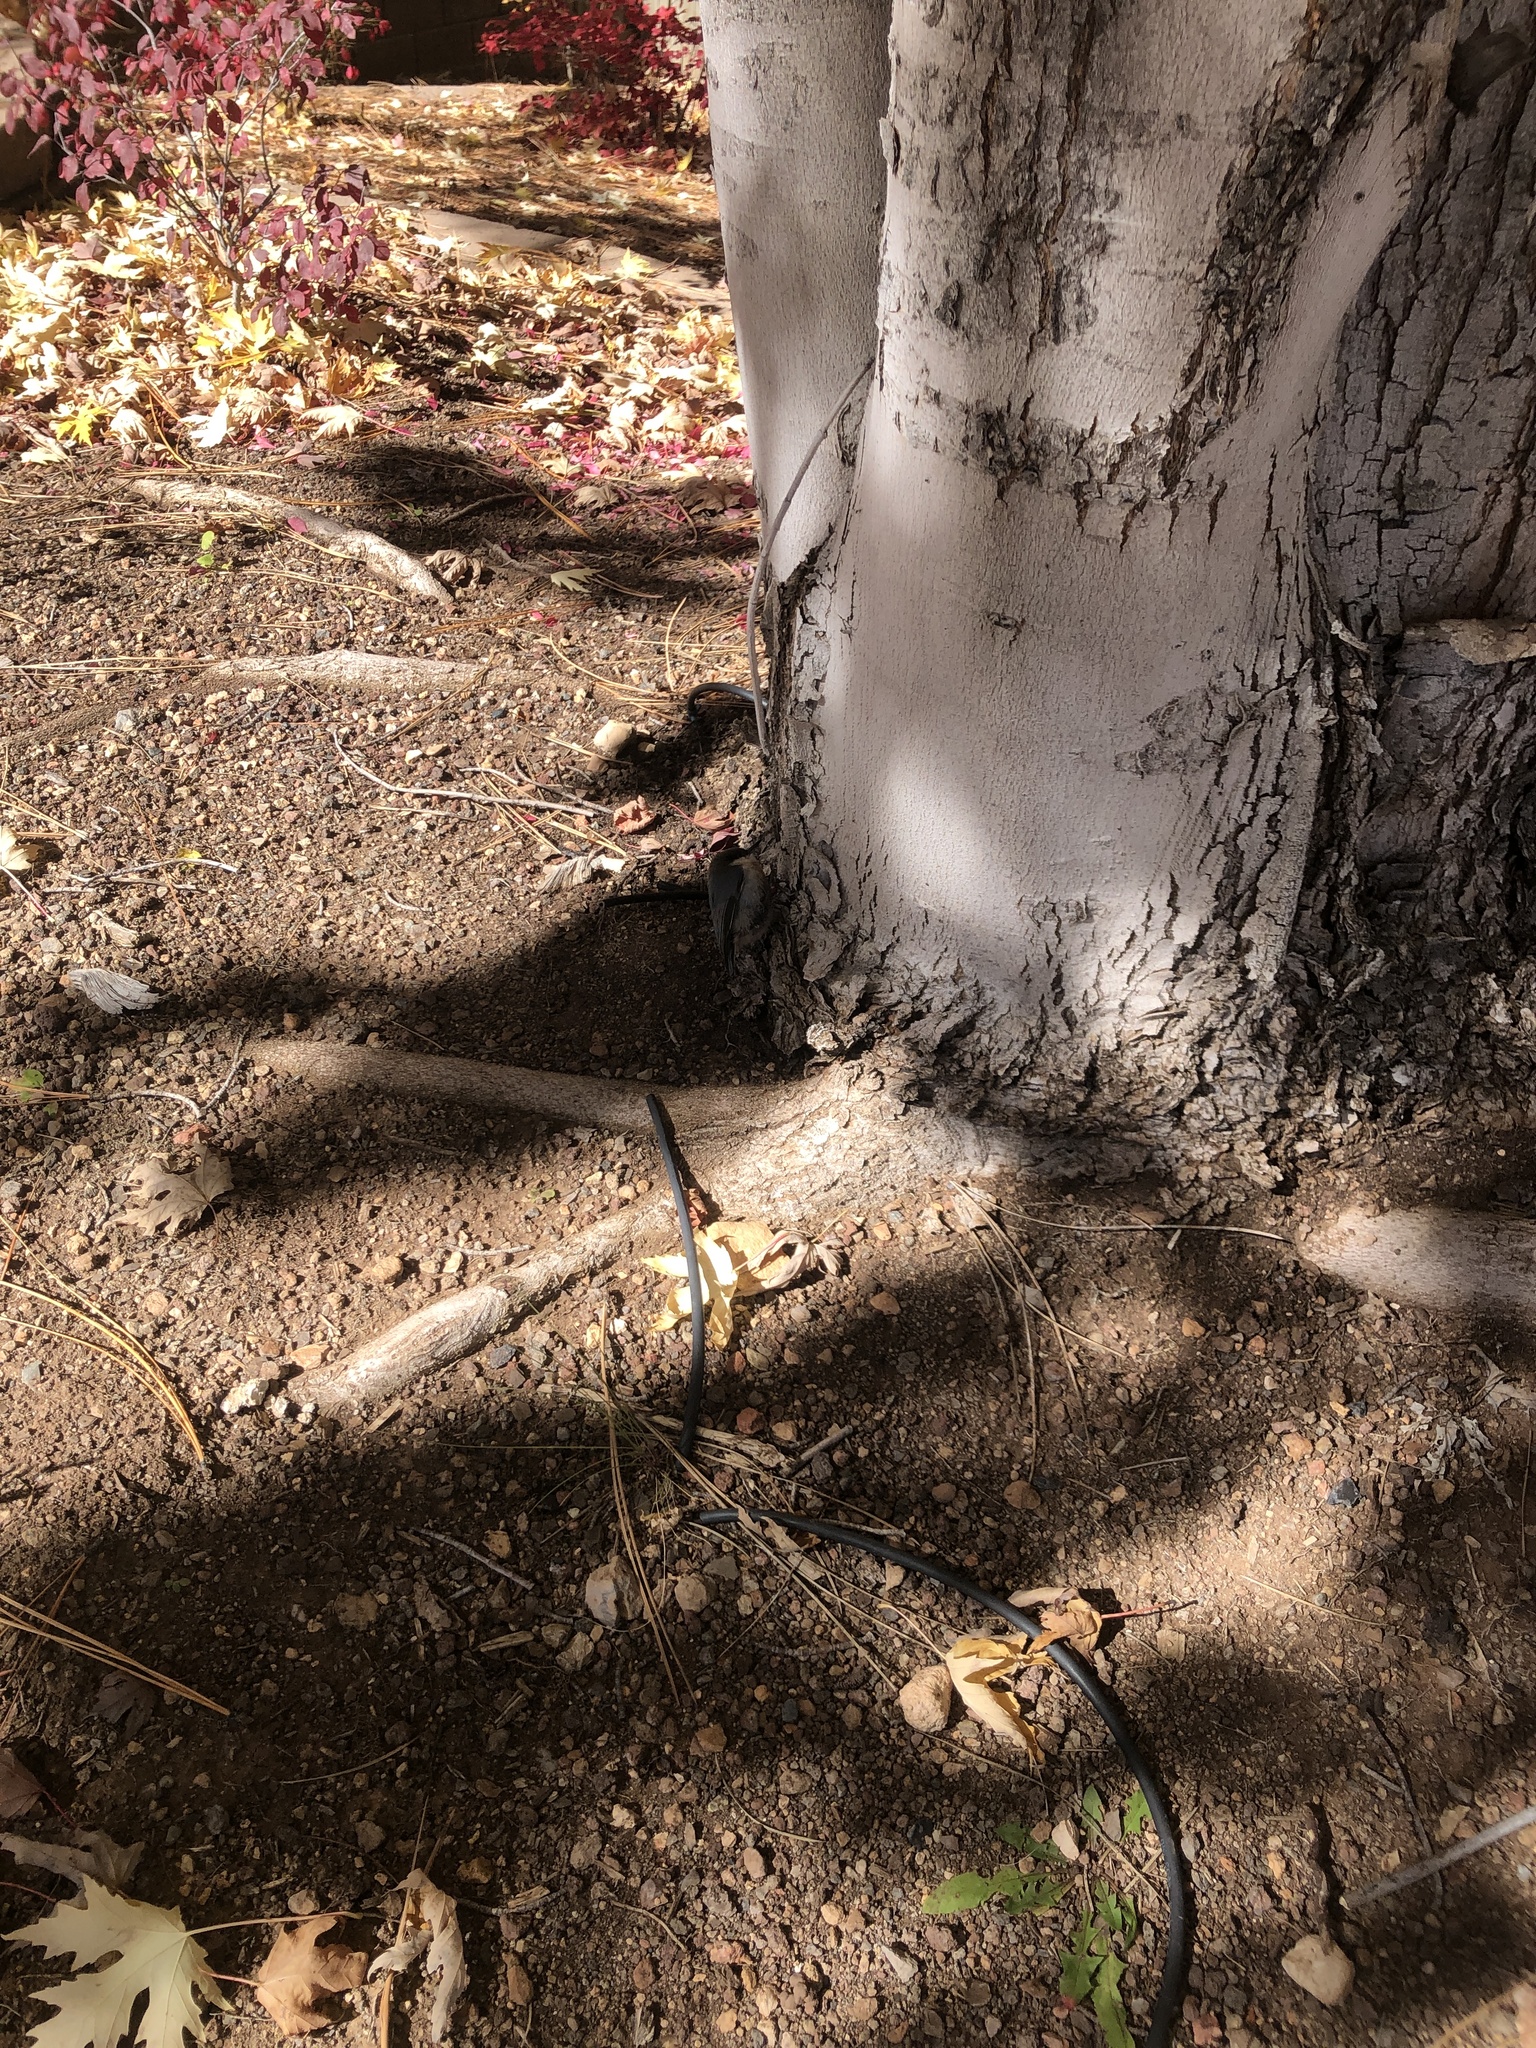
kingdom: Animalia
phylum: Chordata
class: Aves
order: Passeriformes
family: Sittidae
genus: Sitta
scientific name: Sitta pygmaea
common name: Pygmy nuthatch
